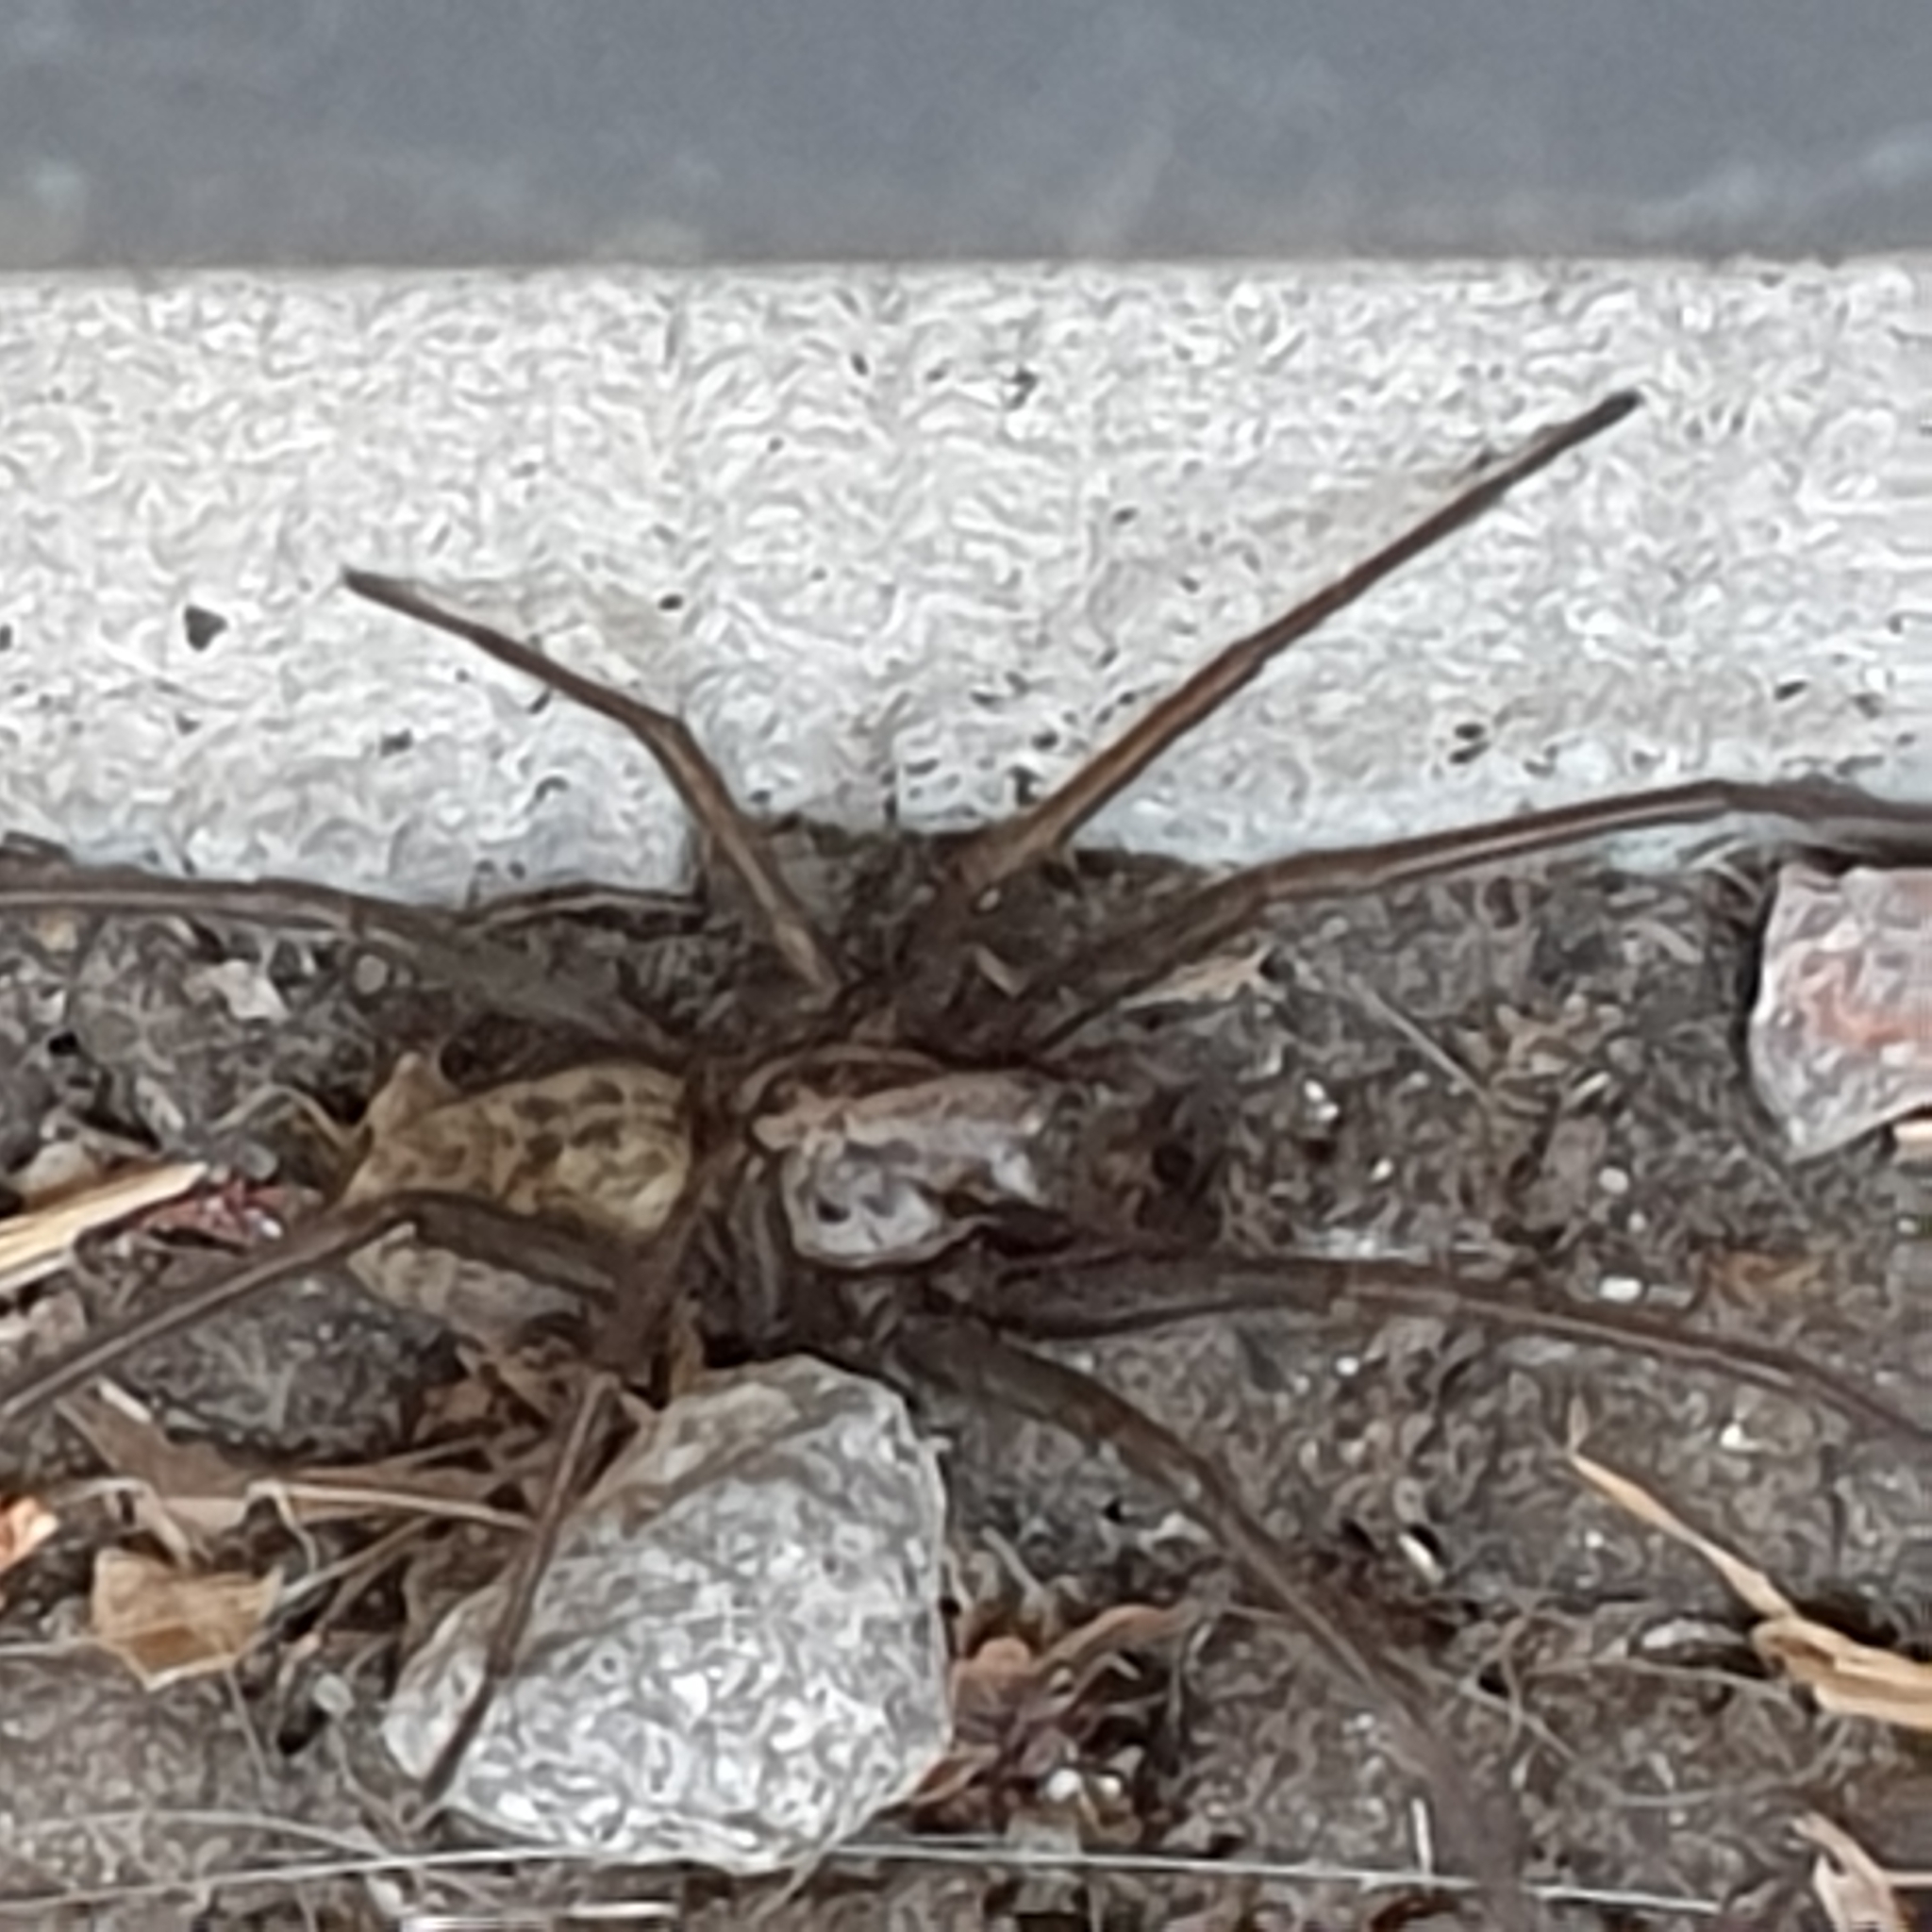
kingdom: Animalia
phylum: Arthropoda
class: Arachnida
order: Araneae
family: Agelenidae
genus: Eratigena
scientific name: Eratigena atrica
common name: Giant house spider
